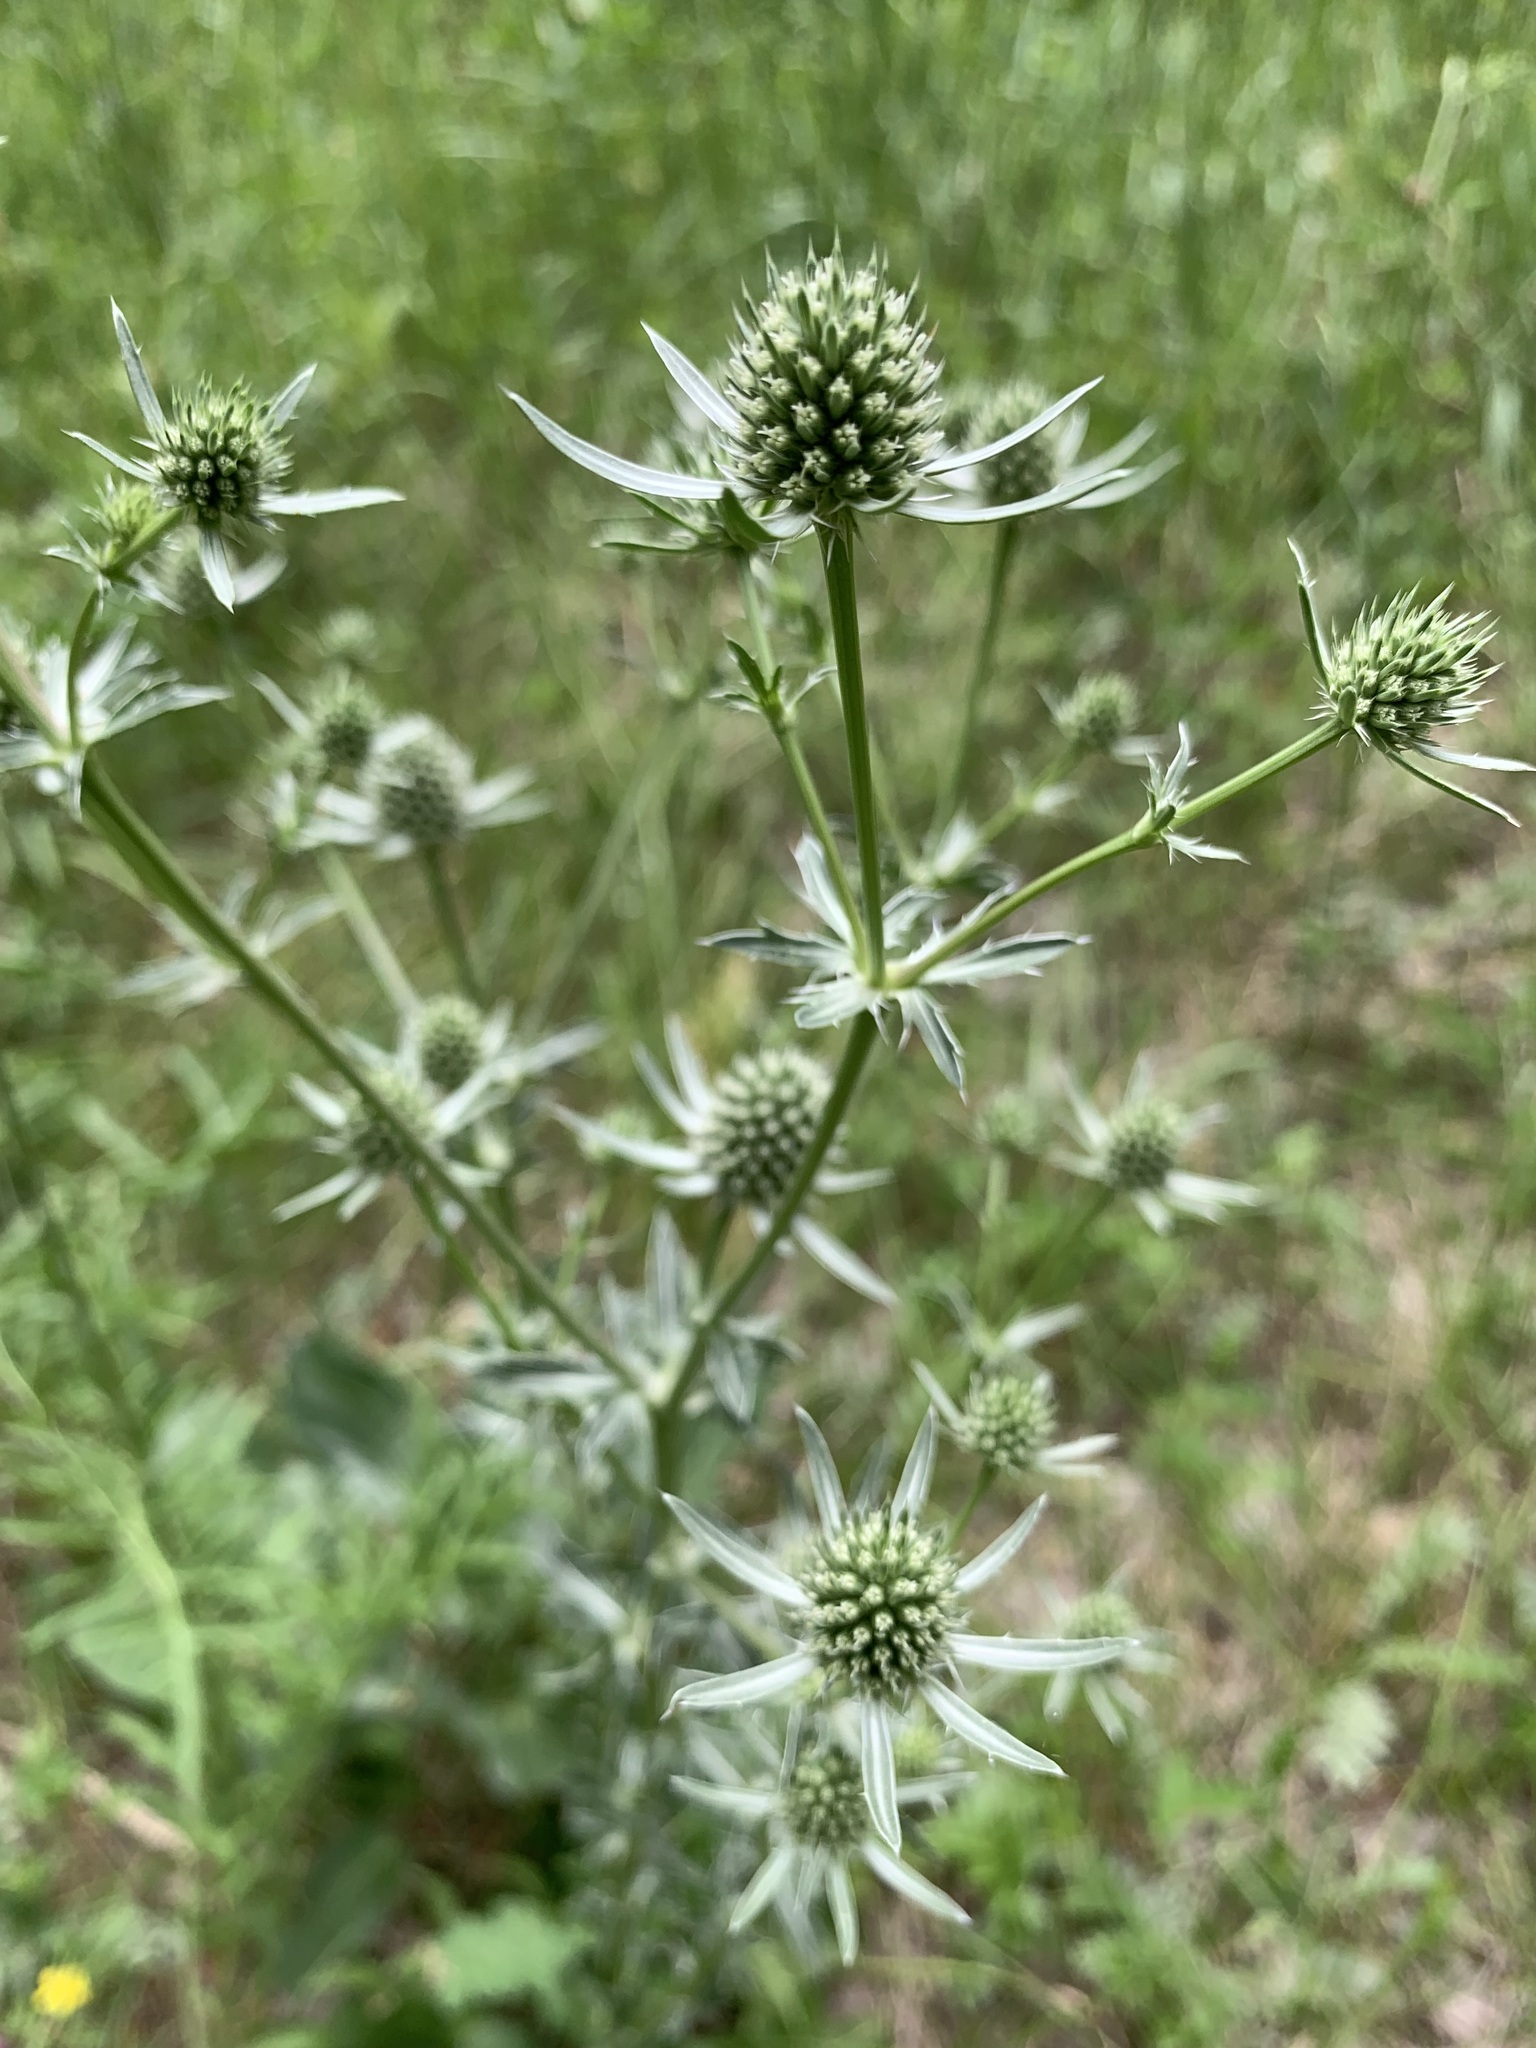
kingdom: Plantae
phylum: Tracheophyta
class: Magnoliopsida
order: Apiales
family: Apiaceae
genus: Eryngium
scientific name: Eryngium planum
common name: Blue eryngo
